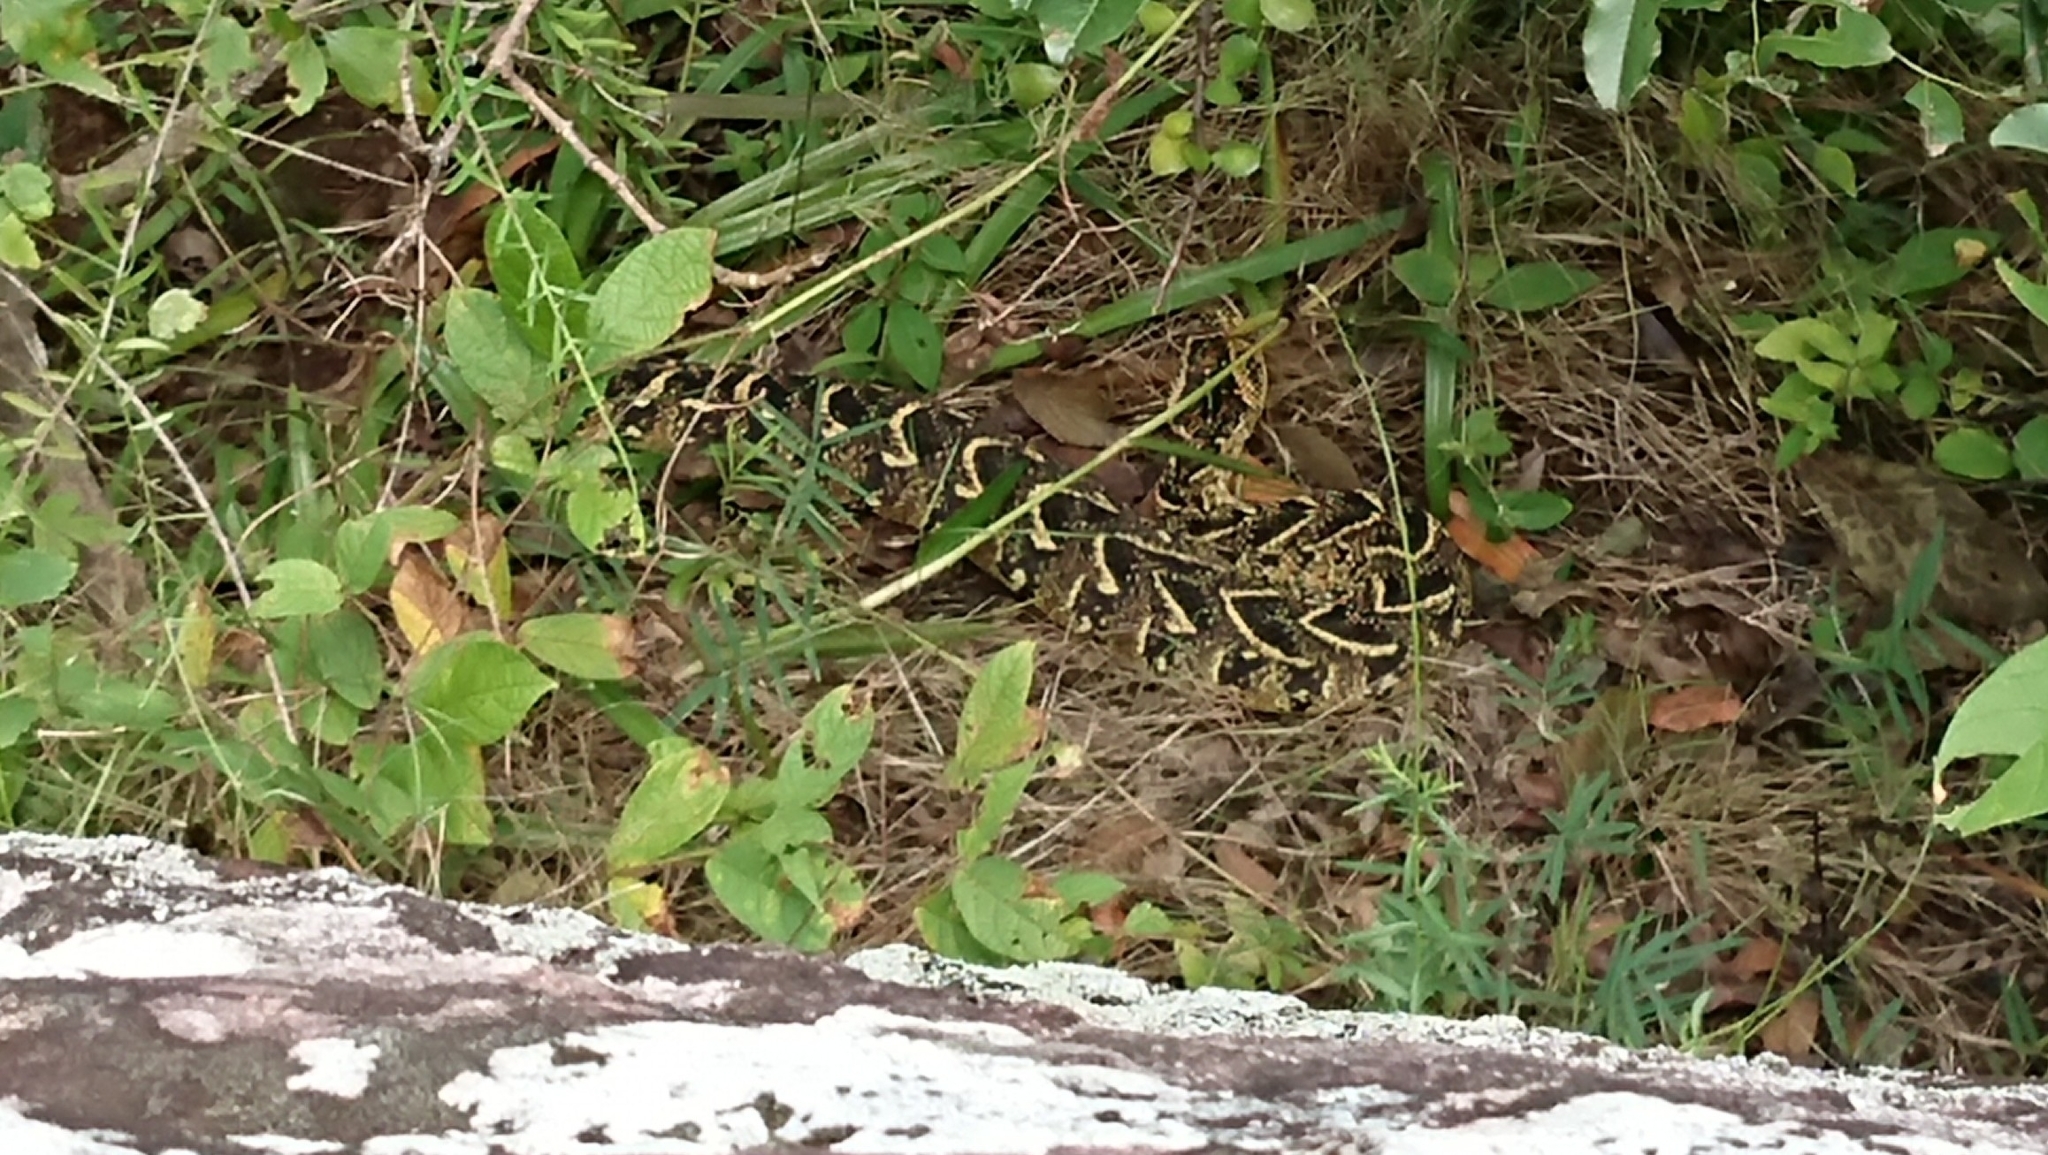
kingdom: Animalia
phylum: Chordata
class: Squamata
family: Viperidae
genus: Bitis
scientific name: Bitis arietans
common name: Puff adder
